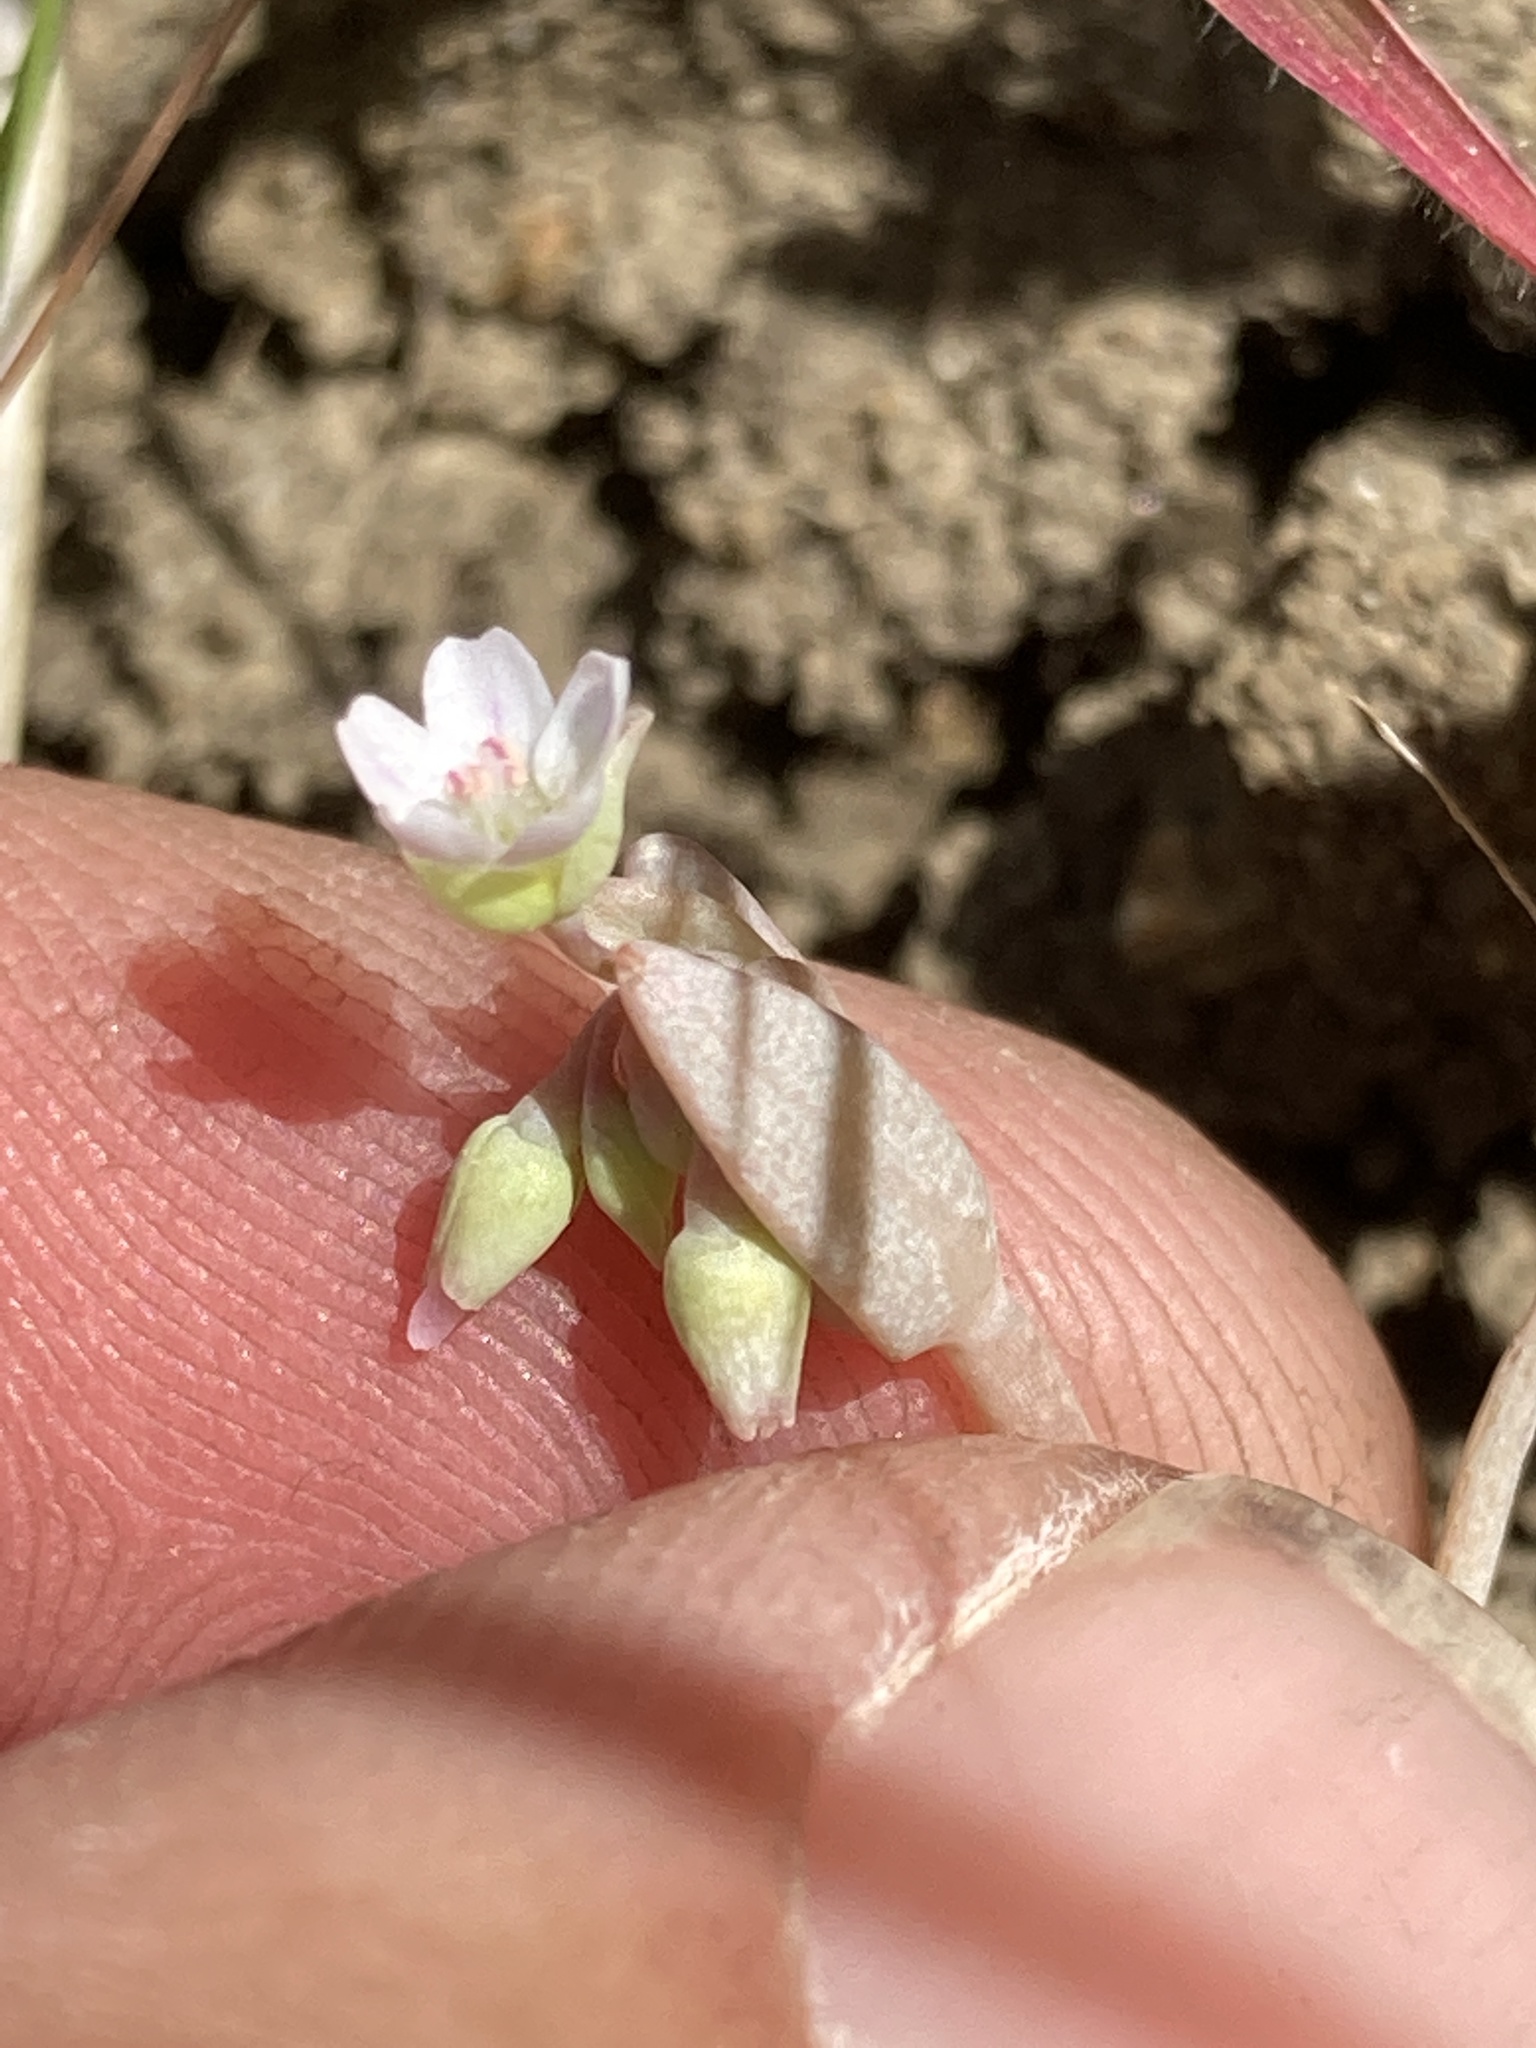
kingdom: Plantae
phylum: Tracheophyta
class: Magnoliopsida
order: Caryophyllales
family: Montiaceae
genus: Claytonia
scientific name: Claytonia exigua
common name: Pale spring beauty
